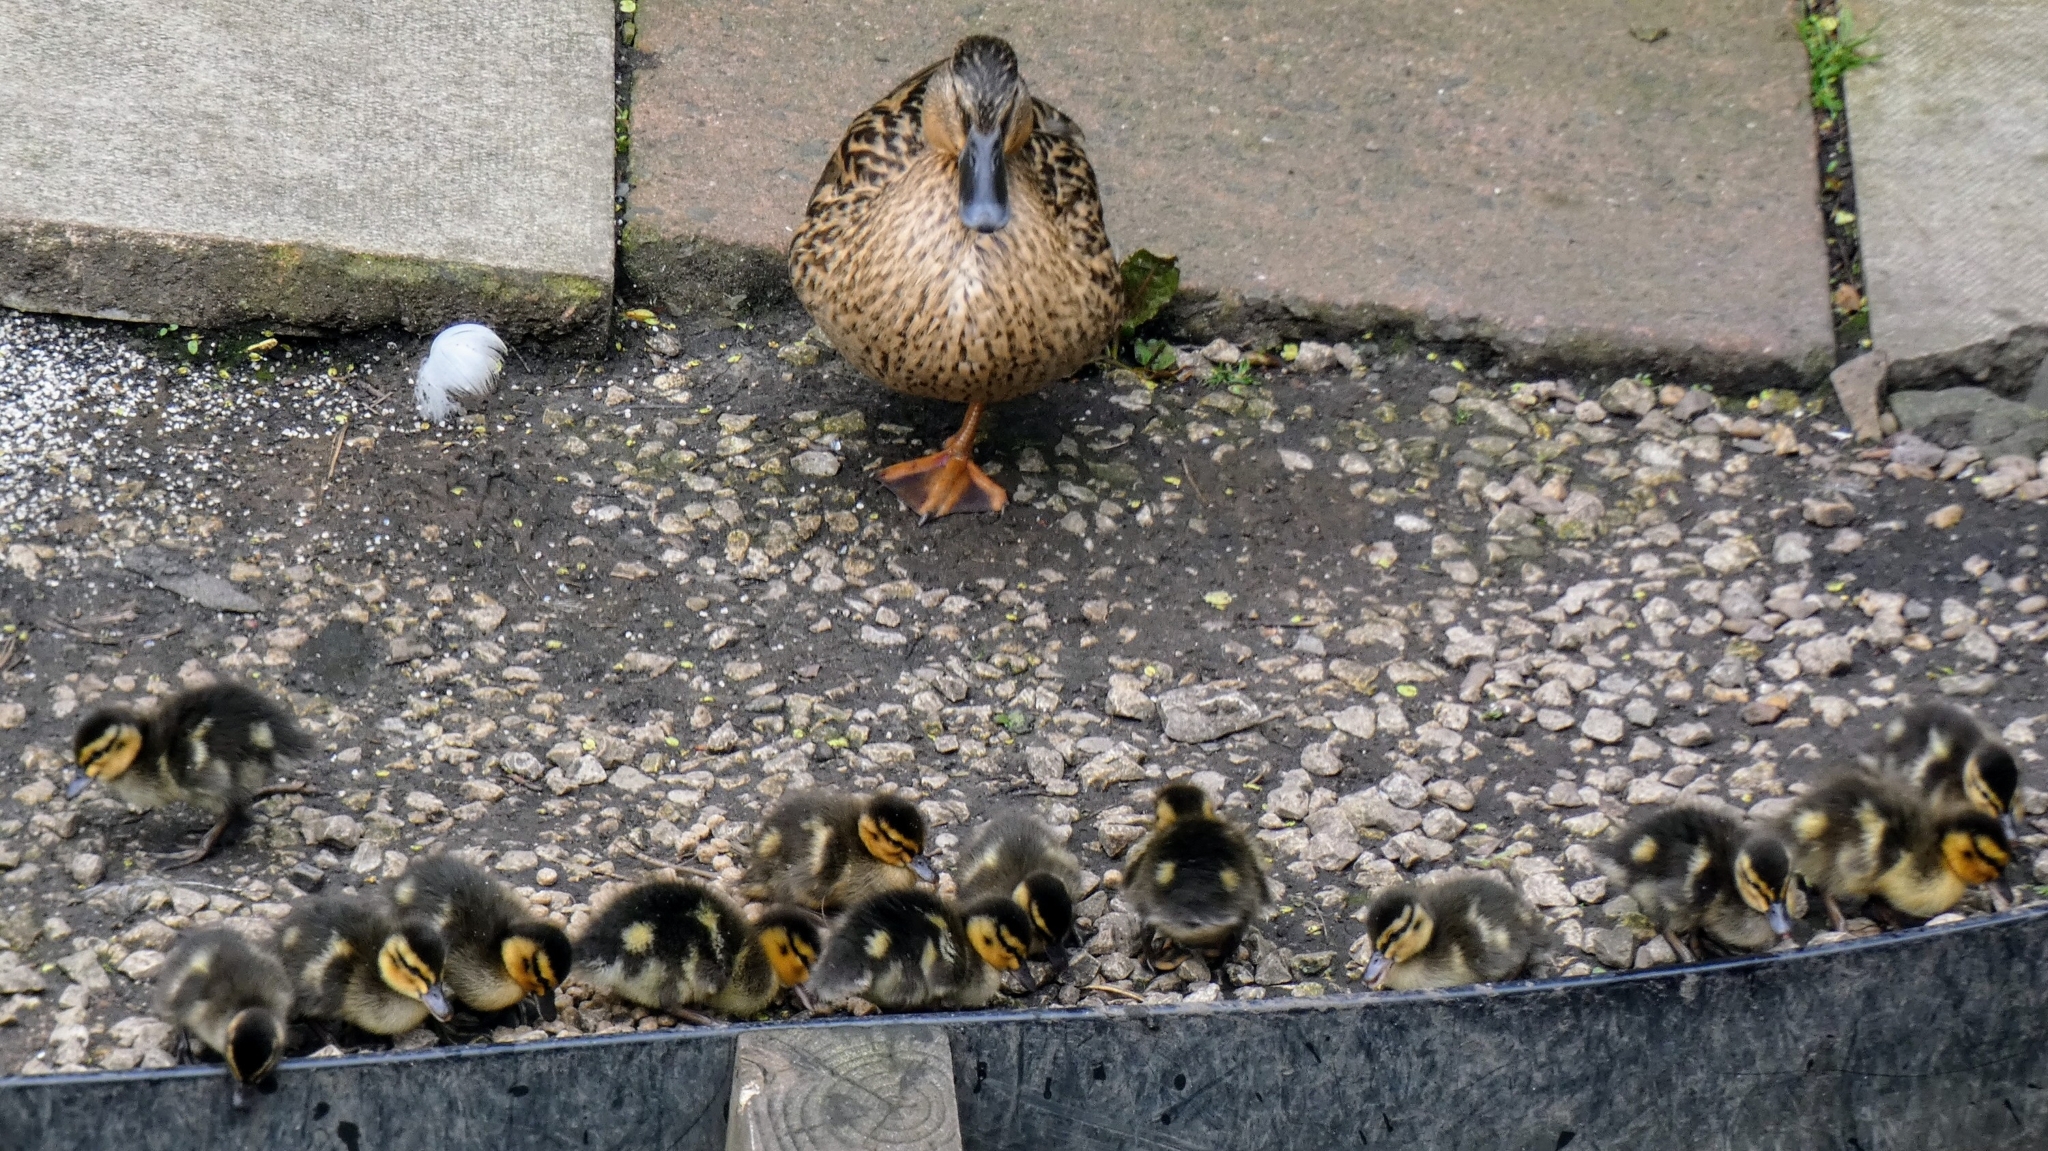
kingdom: Animalia
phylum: Chordata
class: Aves
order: Anseriformes
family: Anatidae
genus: Anas
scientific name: Anas platyrhynchos
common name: Mallard
